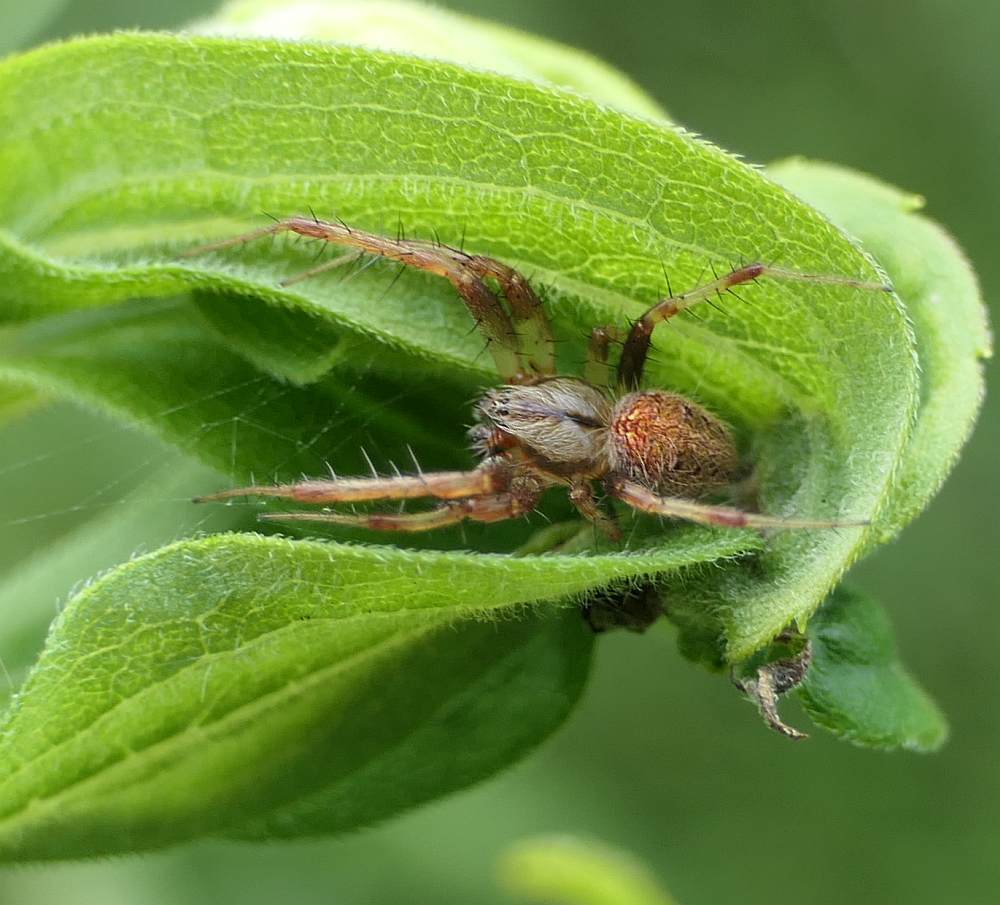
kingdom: Animalia
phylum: Arthropoda
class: Arachnida
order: Araneae
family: Araneidae
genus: Neoscona
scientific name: Neoscona arabesca
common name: Orb weavers
